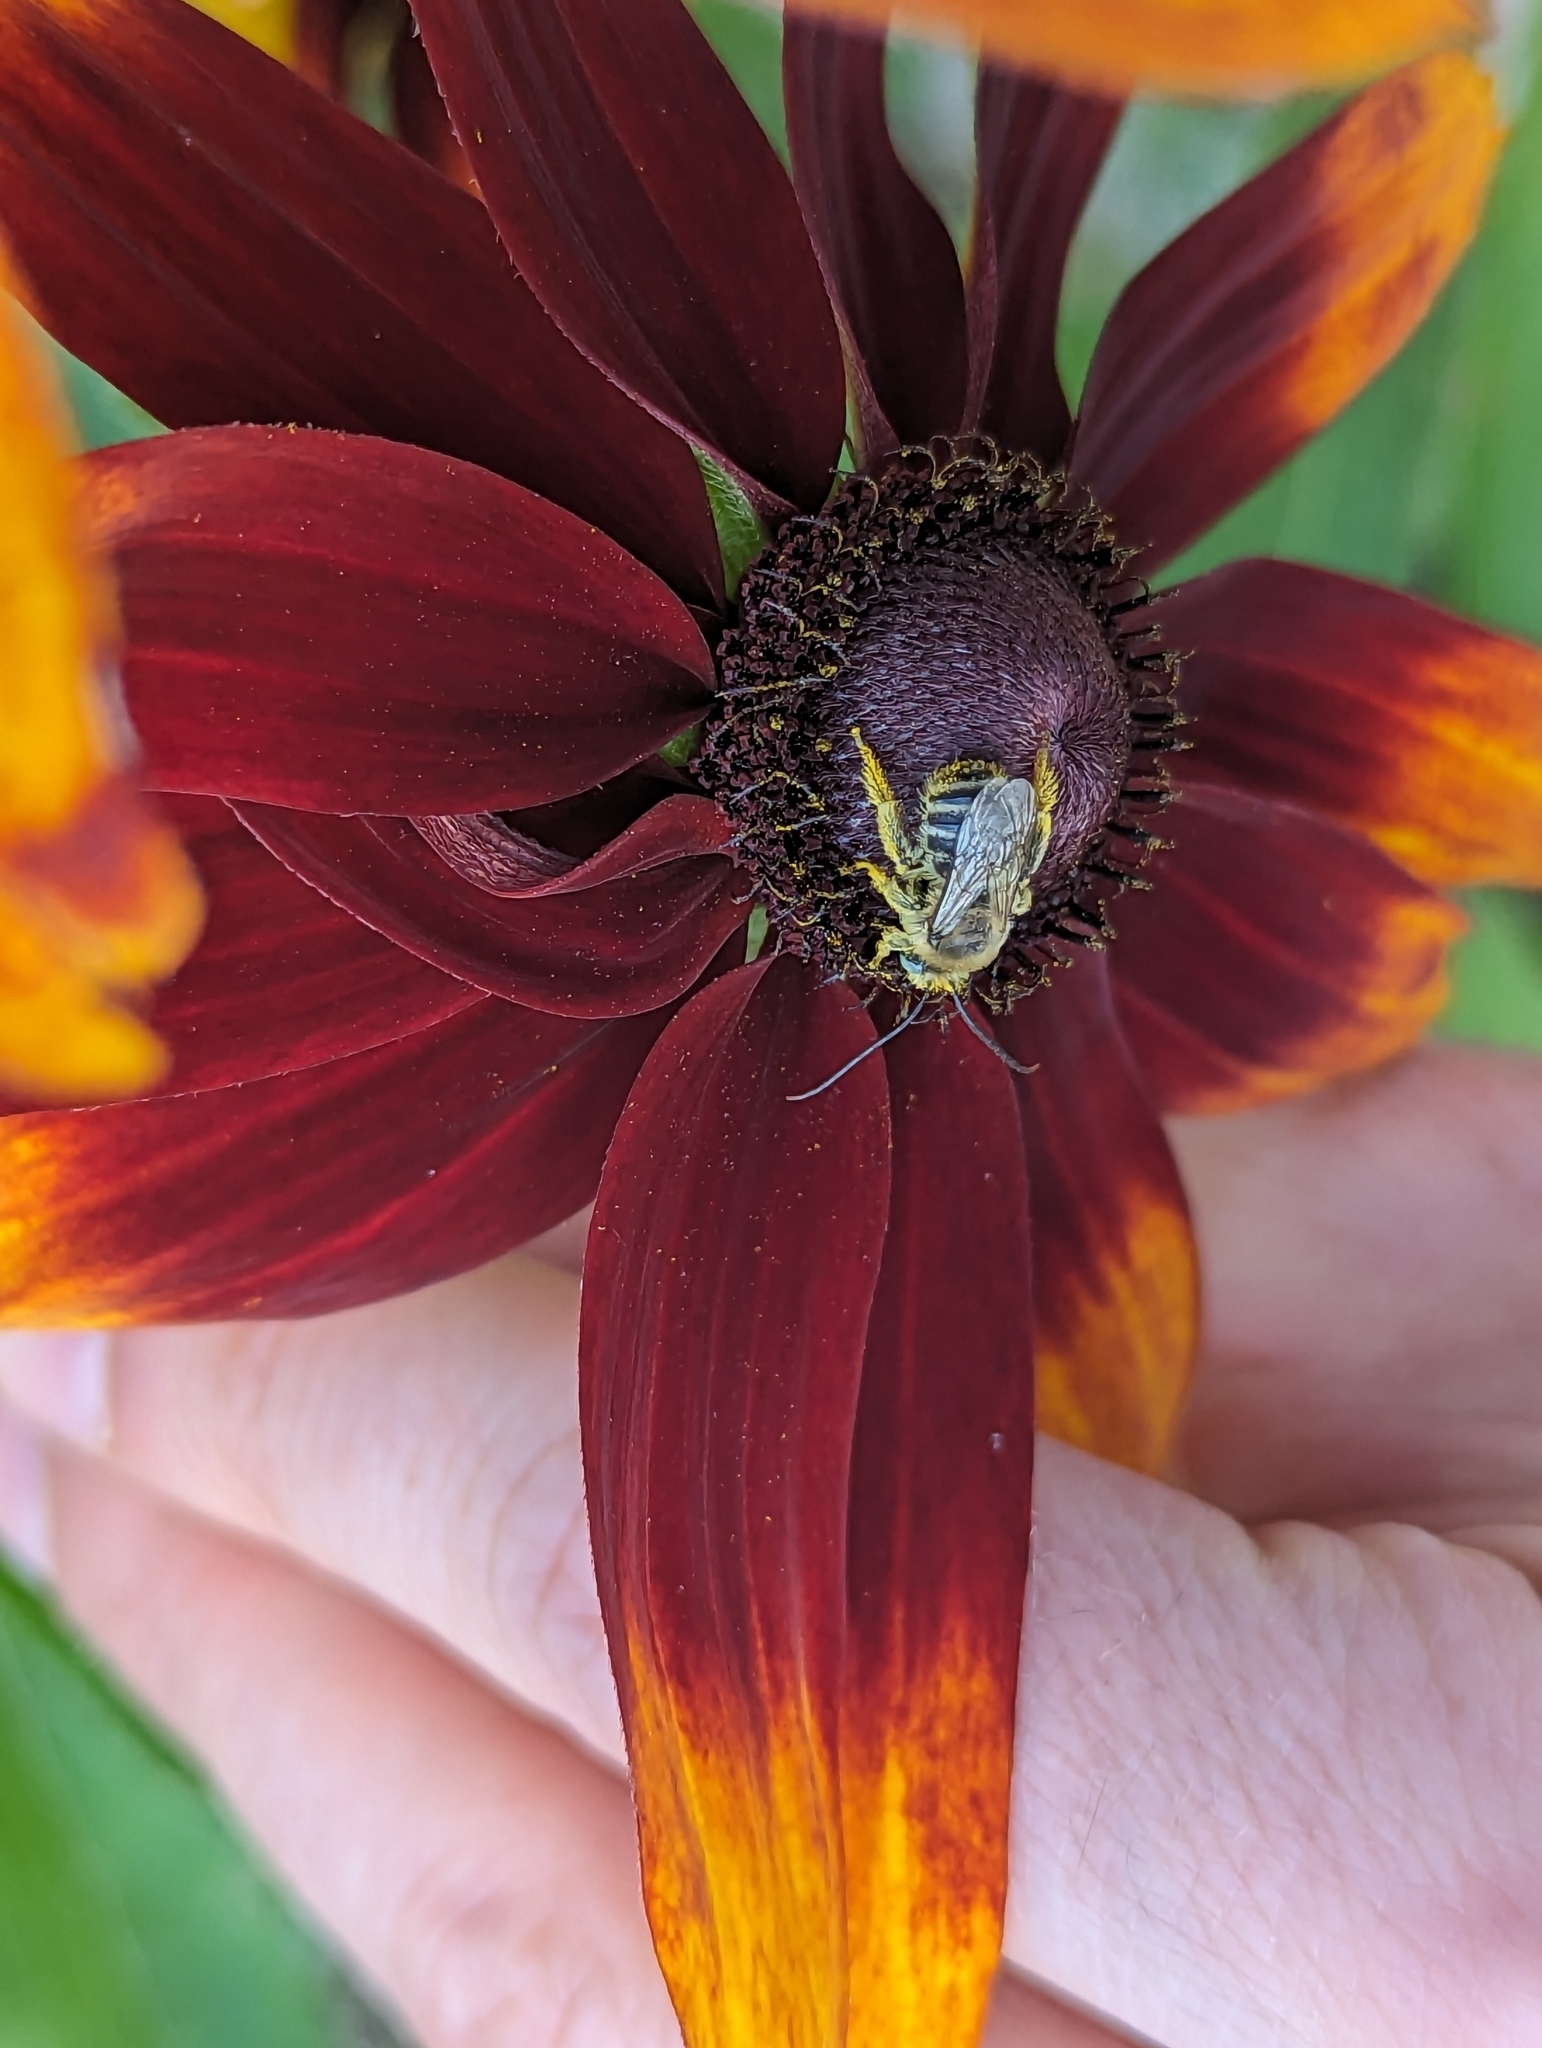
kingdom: Animalia
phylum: Arthropoda
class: Insecta
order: Hymenoptera
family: Apidae
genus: Melissodes
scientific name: Melissodes druriellus
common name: Drury's long-horned bee
